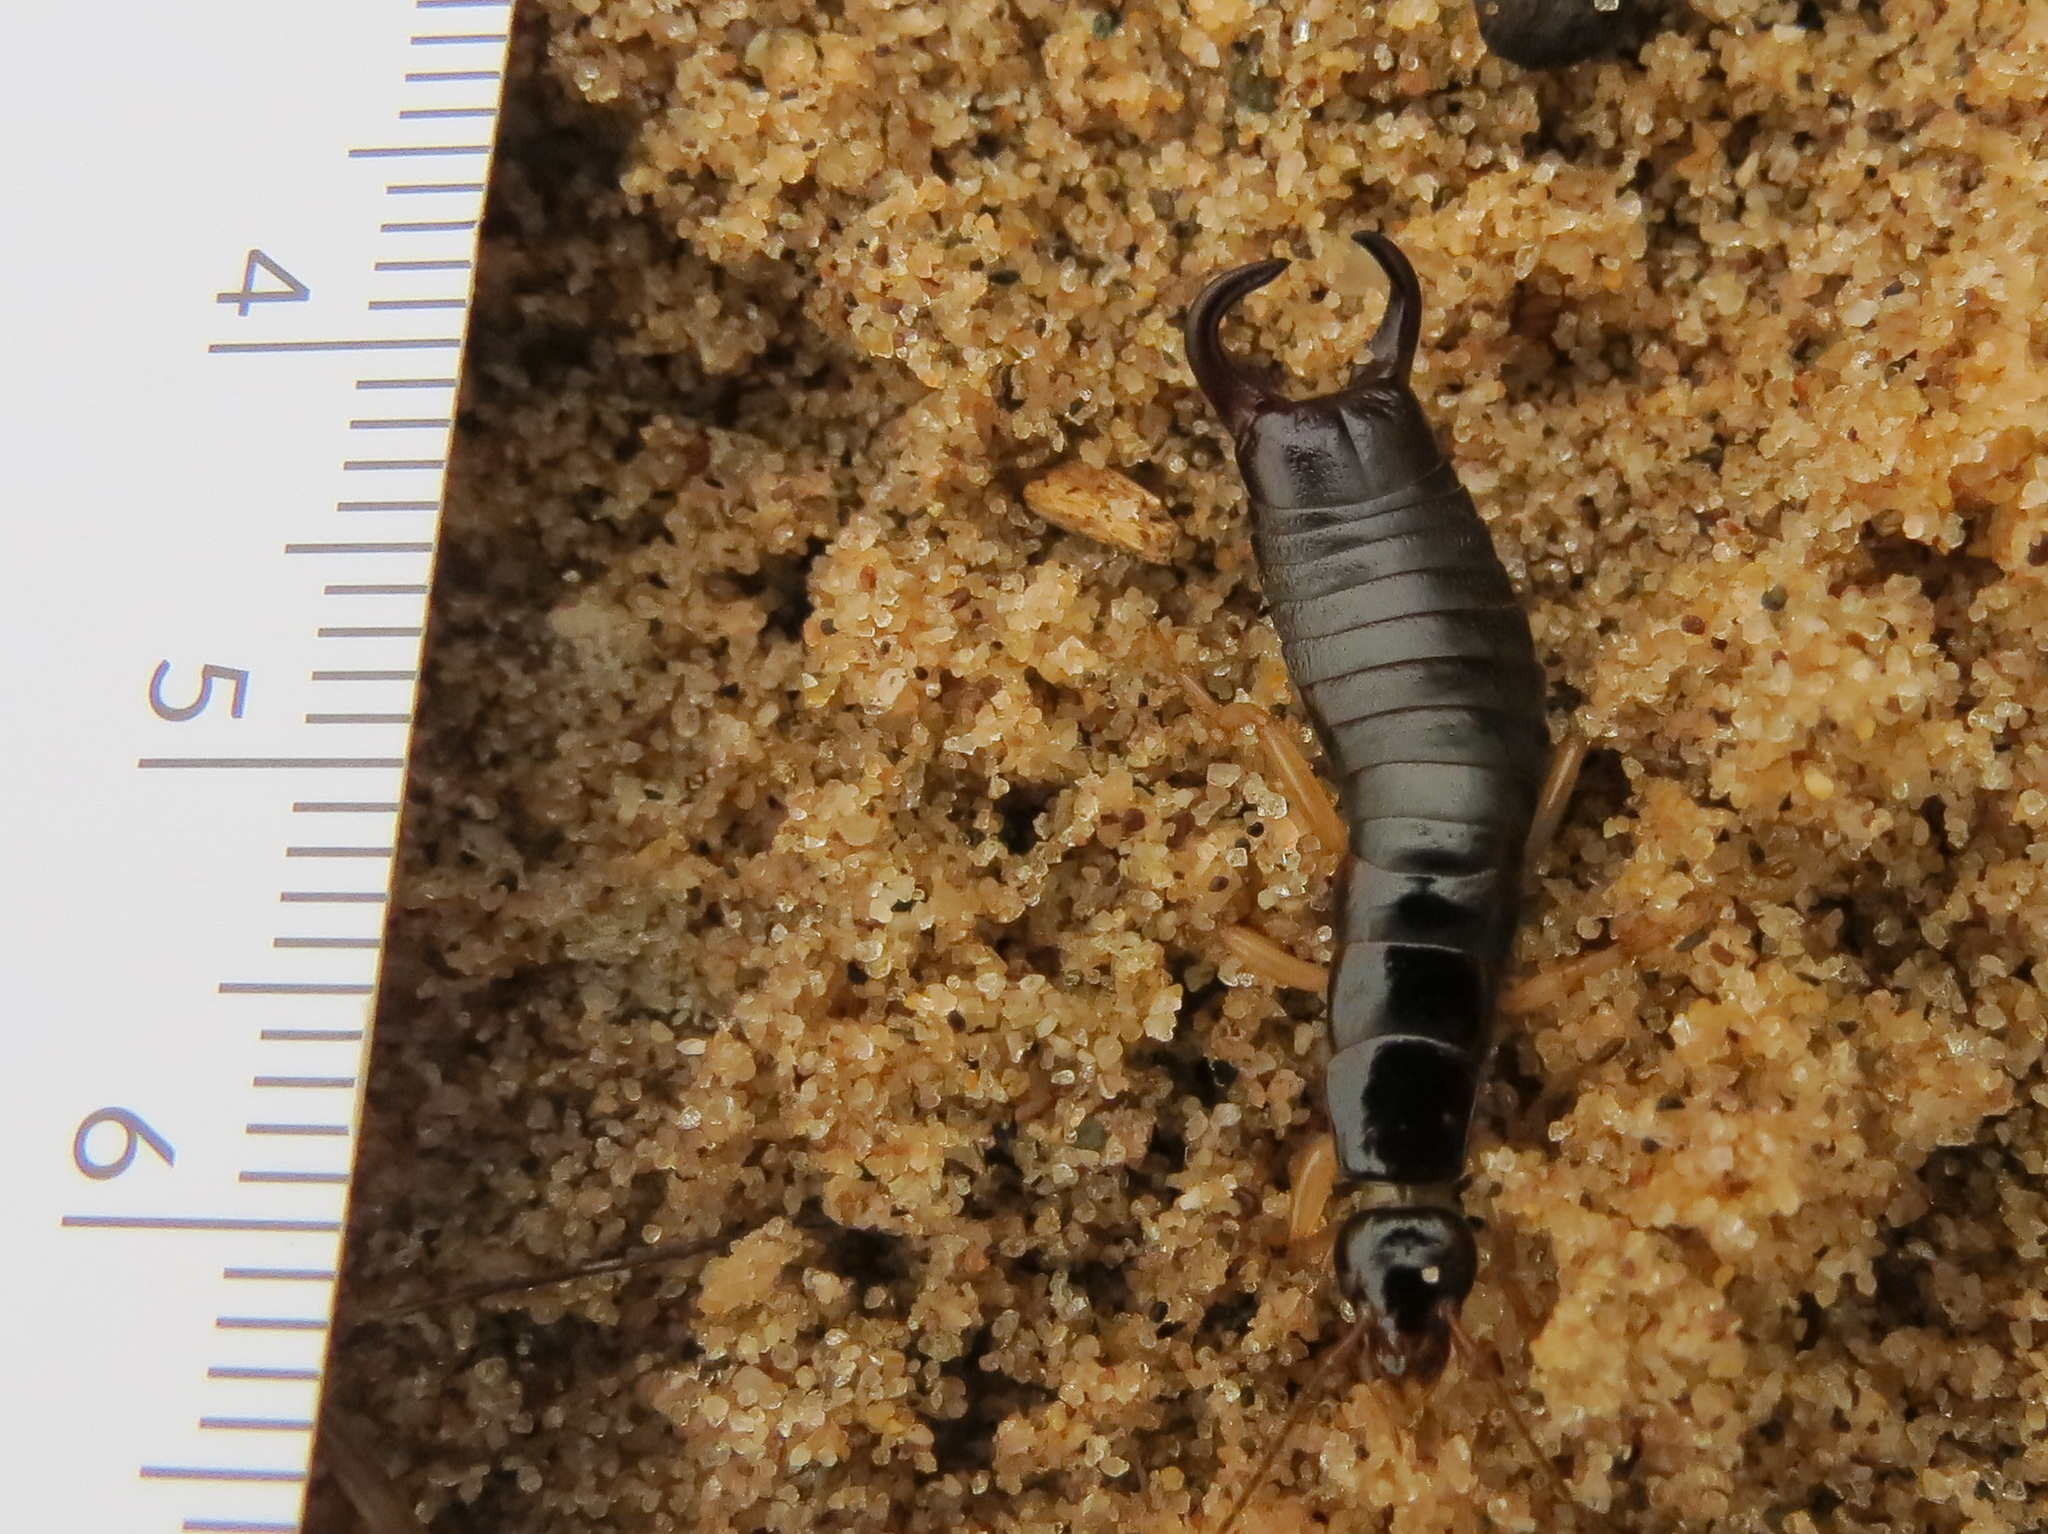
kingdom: Animalia
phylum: Arthropoda
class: Insecta
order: Dermaptera
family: Anisolabididae
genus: Anisolabis
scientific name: Anisolabis maritima
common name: Maritime earwig
